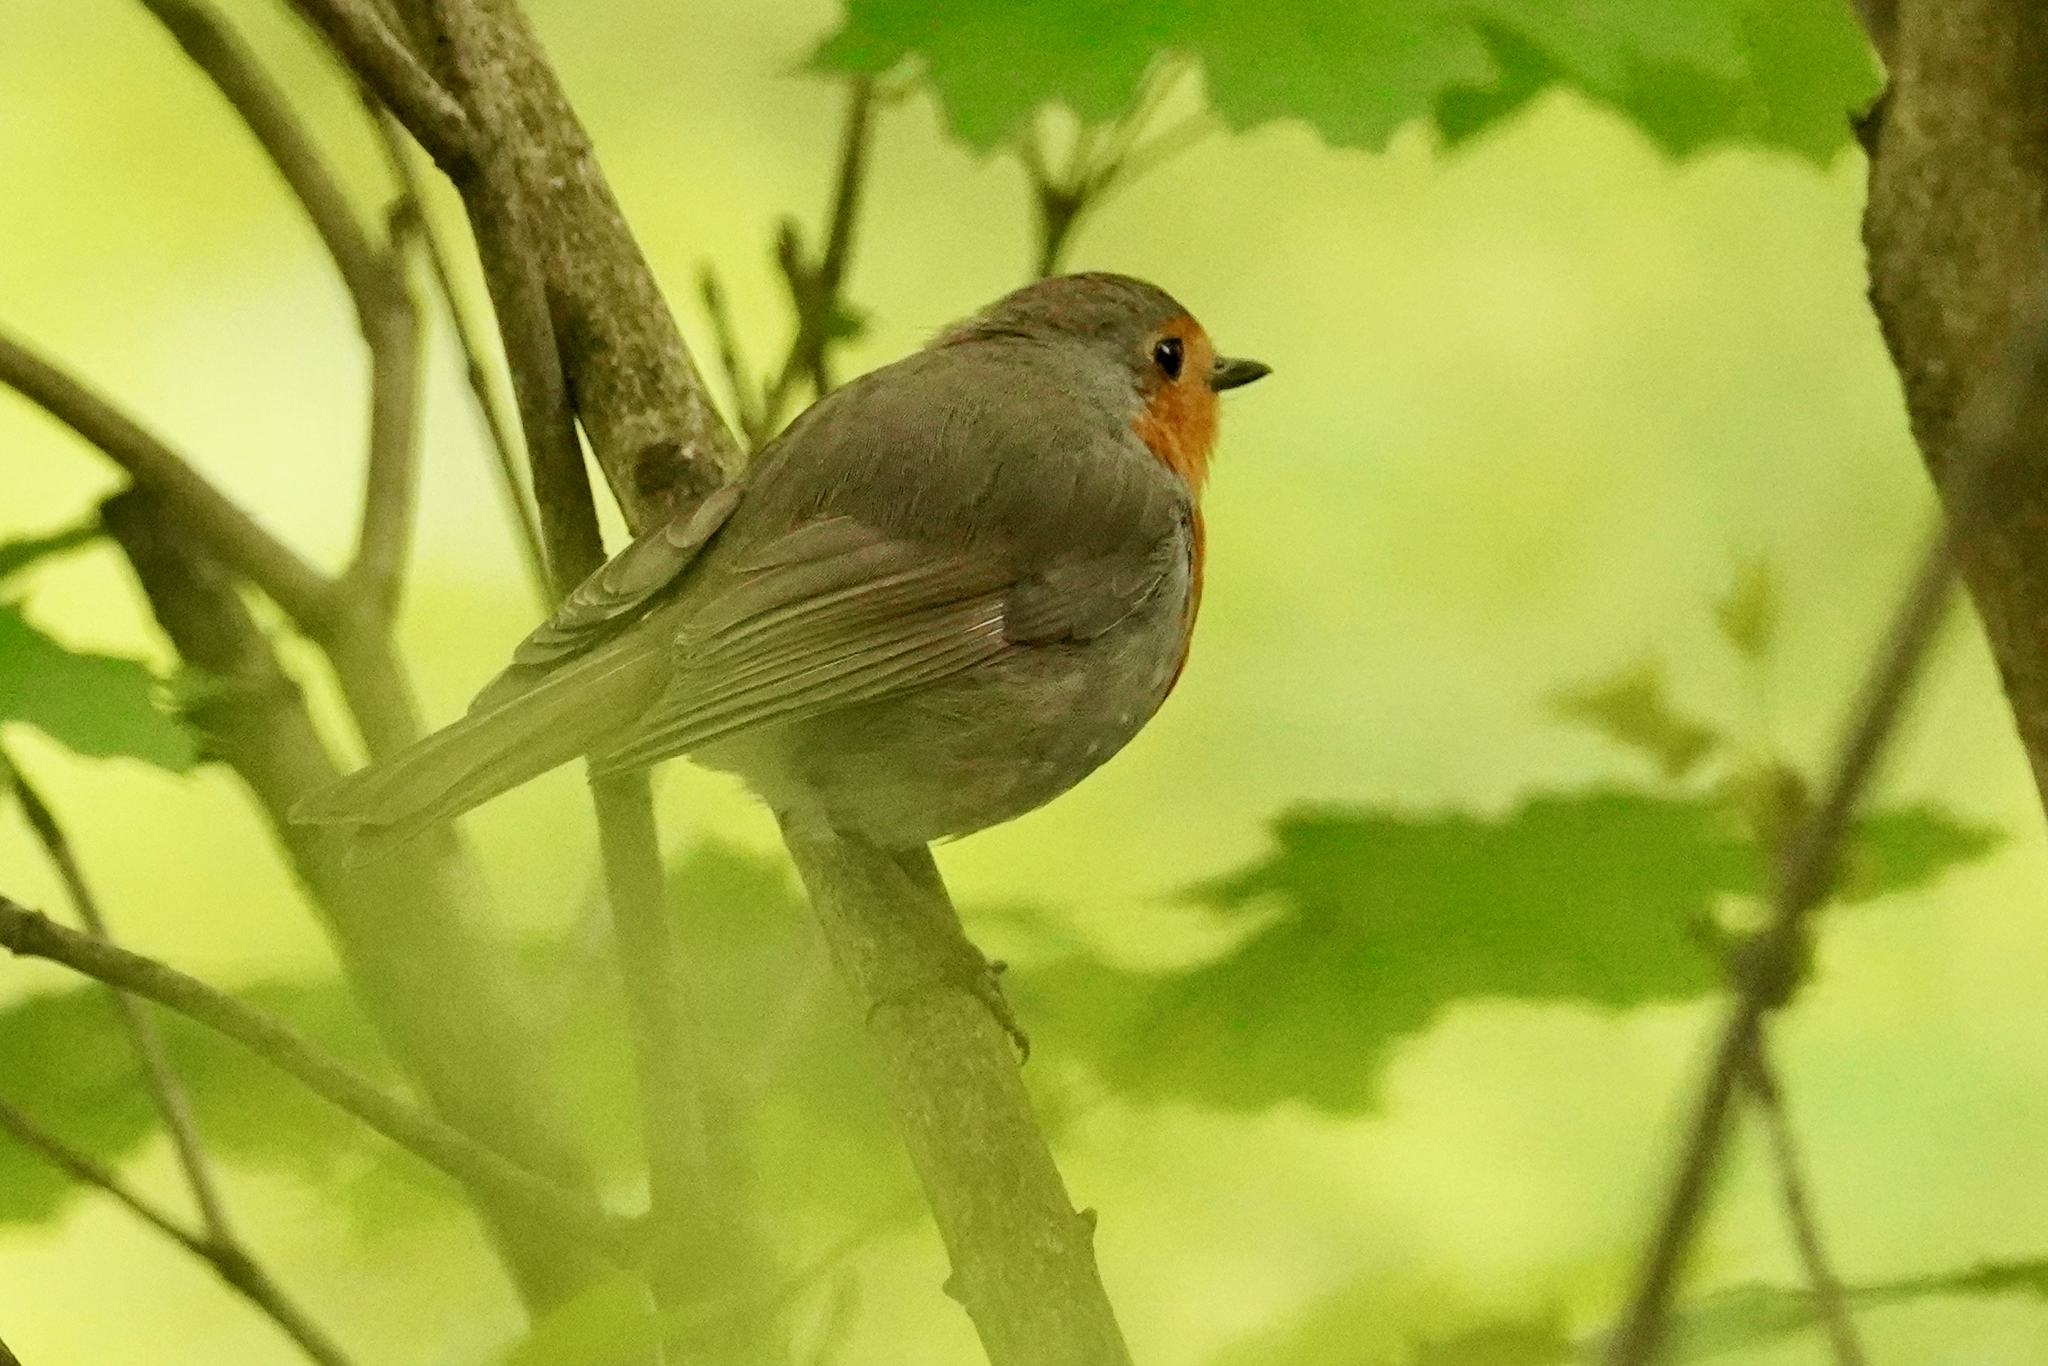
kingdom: Animalia
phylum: Chordata
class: Aves
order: Passeriformes
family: Muscicapidae
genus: Erithacus
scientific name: Erithacus rubecula
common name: European robin
